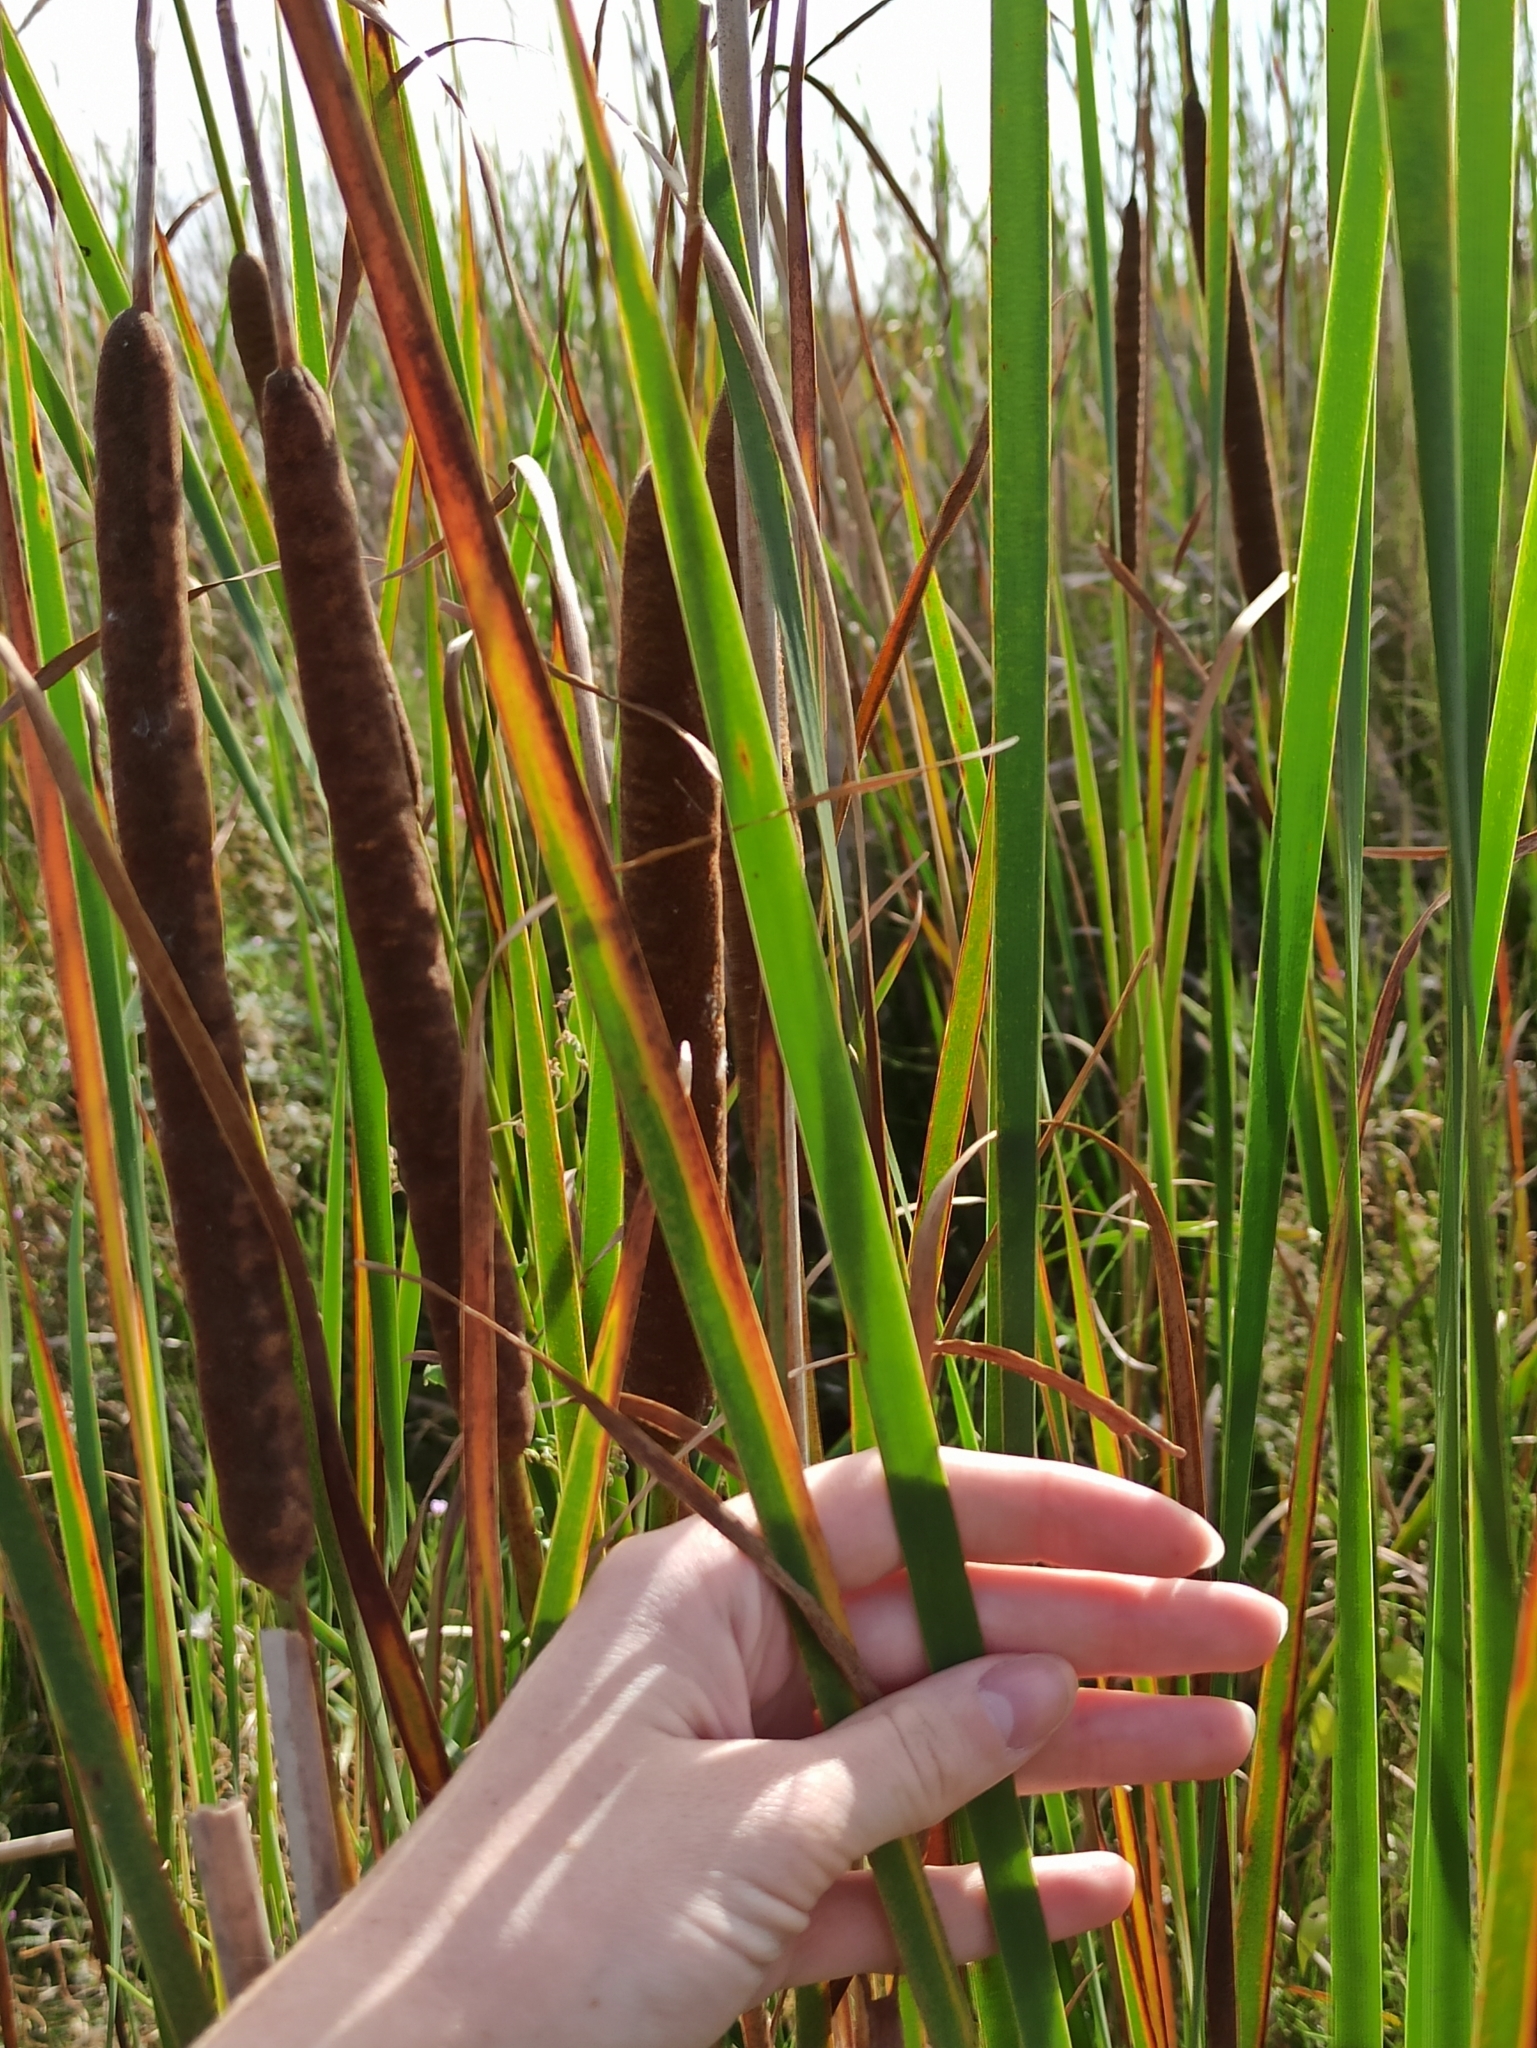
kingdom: Plantae
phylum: Tracheophyta
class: Liliopsida
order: Poales
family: Typhaceae
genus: Typha
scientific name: Typha angustifolia
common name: Lesser bulrush
